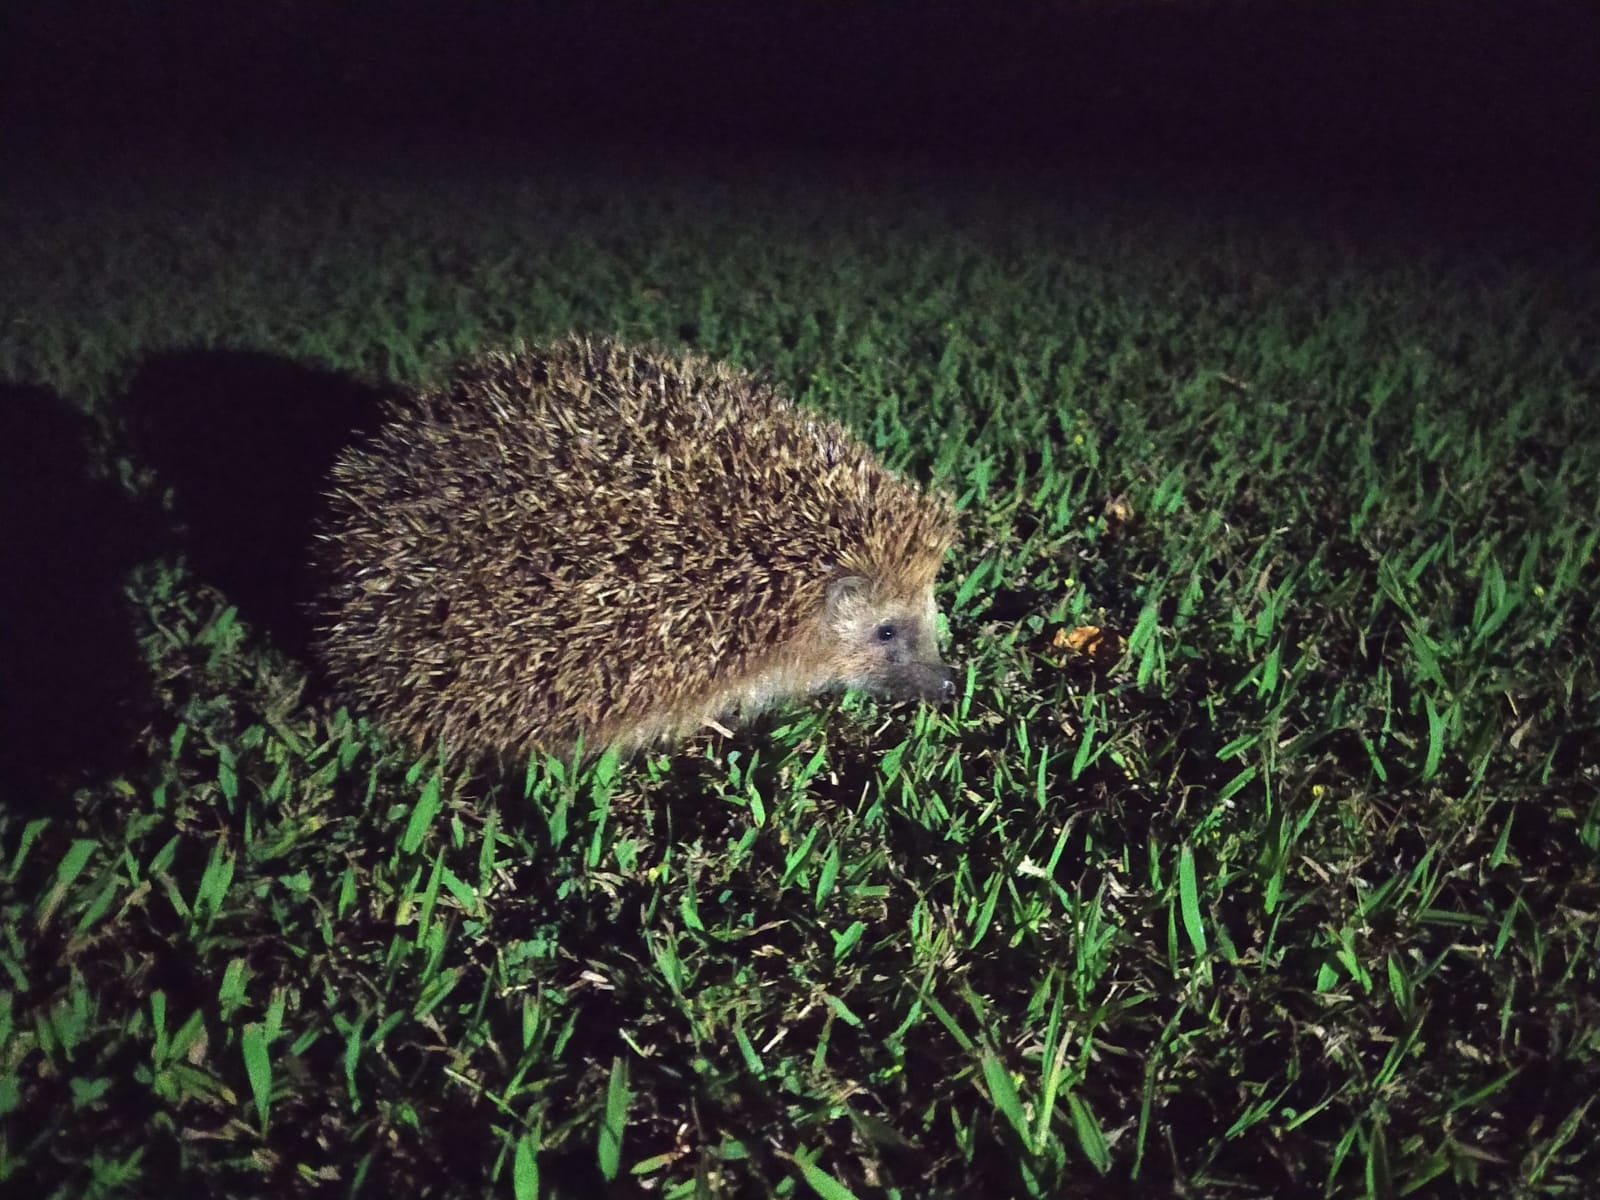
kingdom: Animalia
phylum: Chordata
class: Mammalia
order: Erinaceomorpha
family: Erinaceidae
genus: Erinaceus
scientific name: Erinaceus europaeus
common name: West european hedgehog
